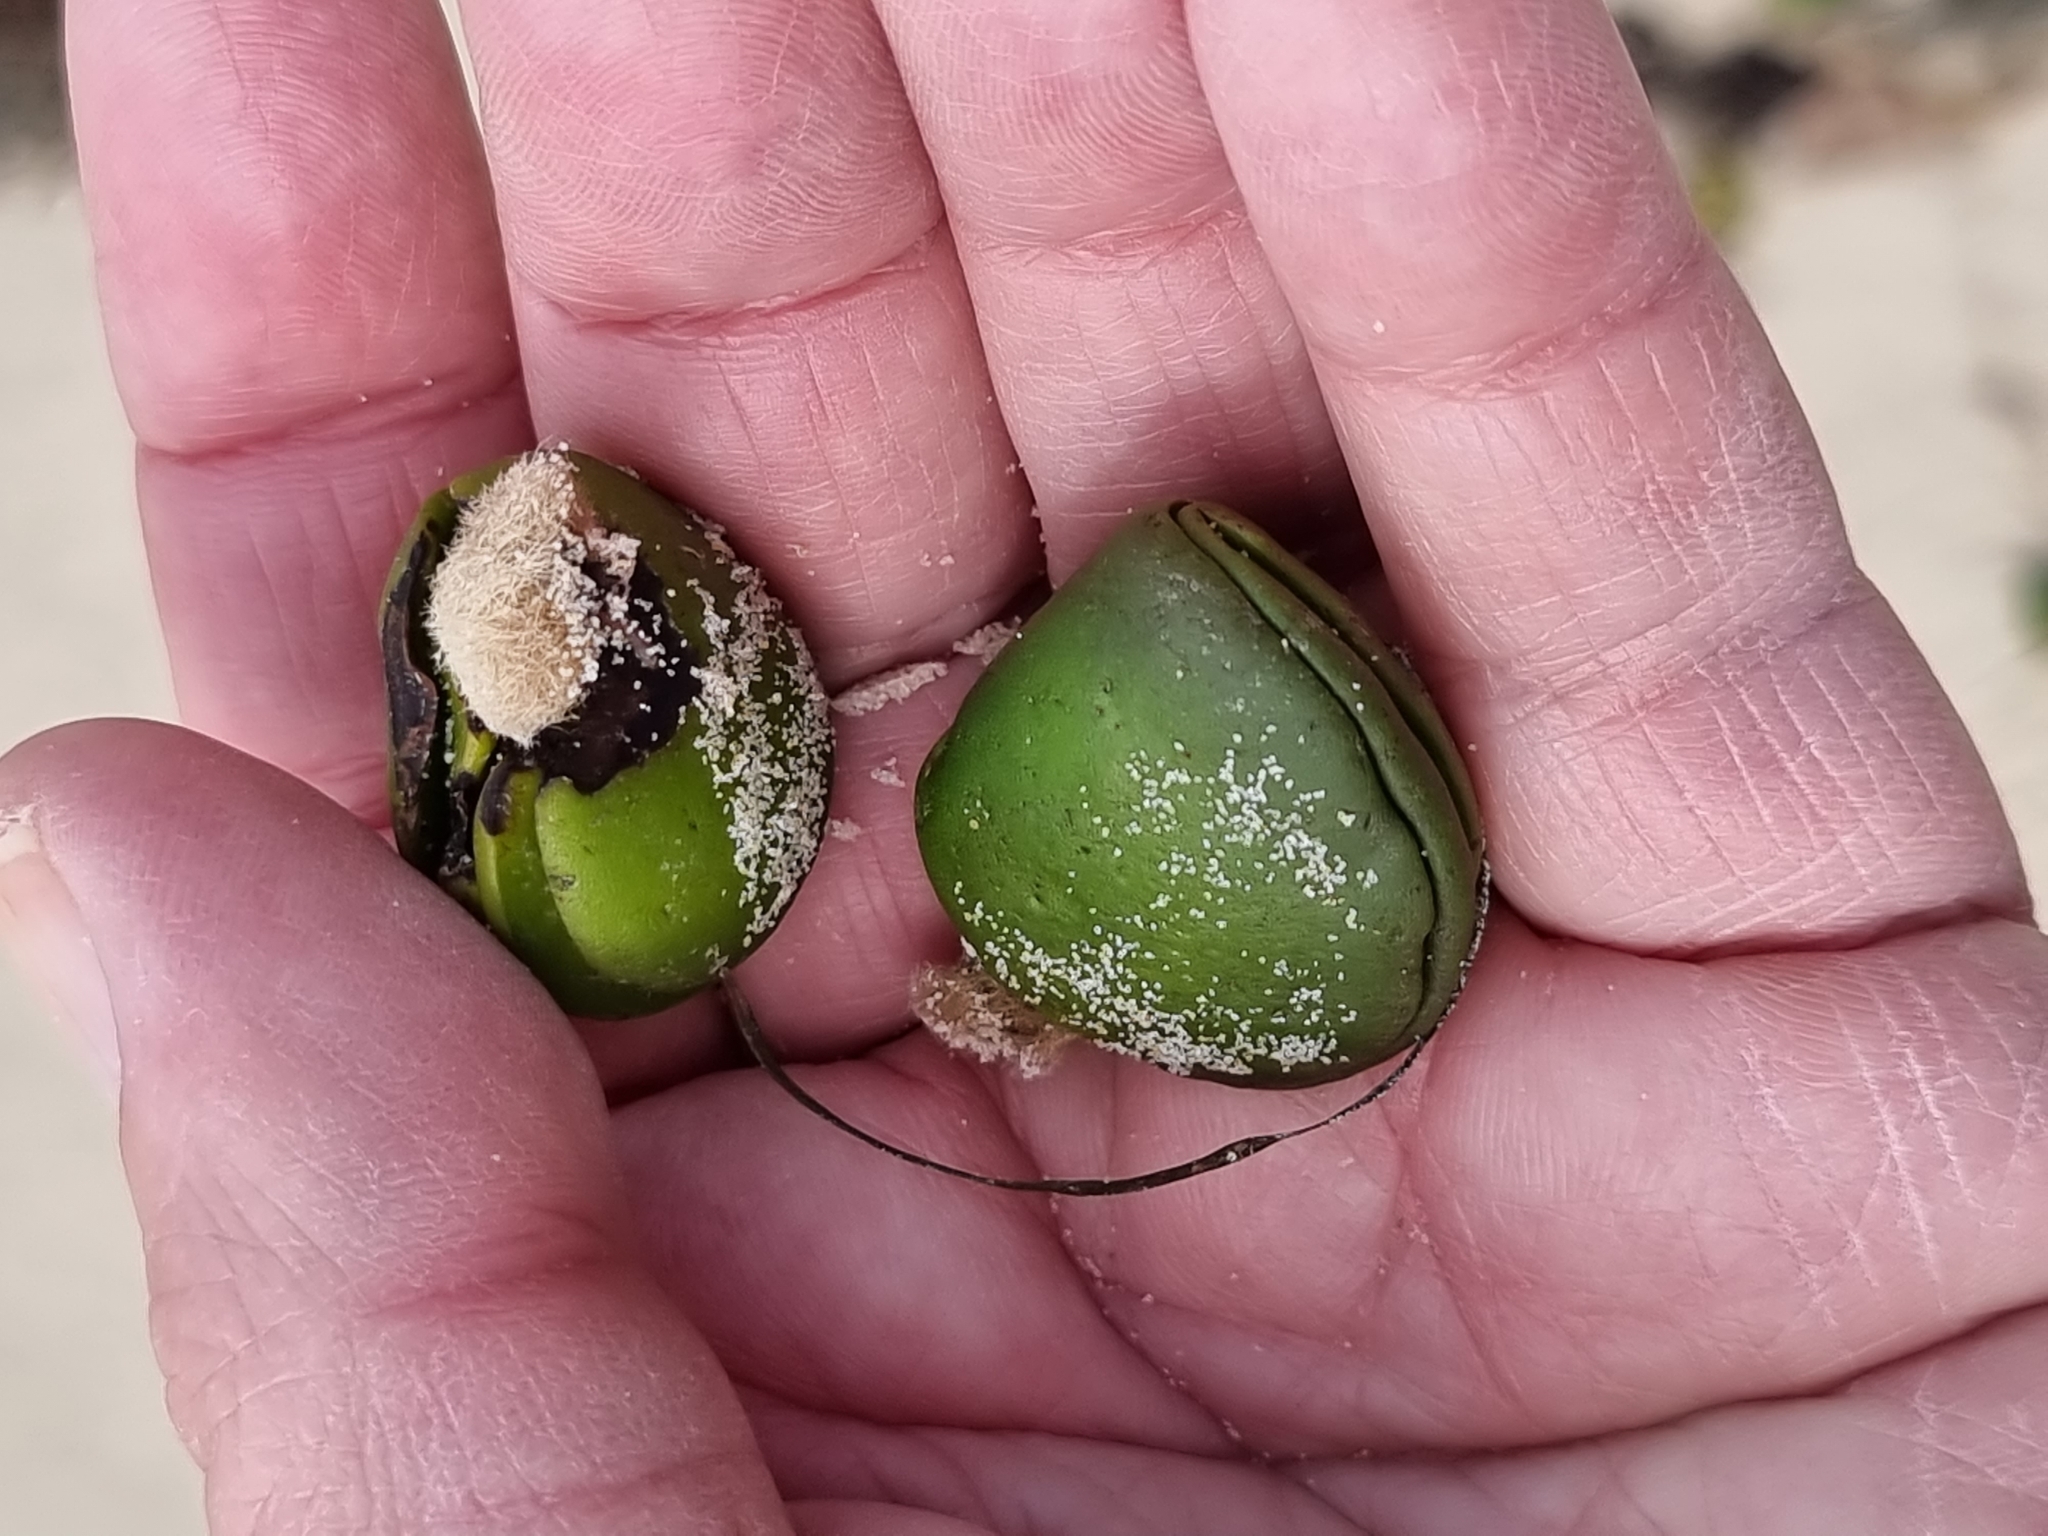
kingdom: Plantae
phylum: Tracheophyta
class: Magnoliopsida
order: Lamiales
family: Acanthaceae
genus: Avicennia
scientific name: Avicennia marina
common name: Gray mangrove
